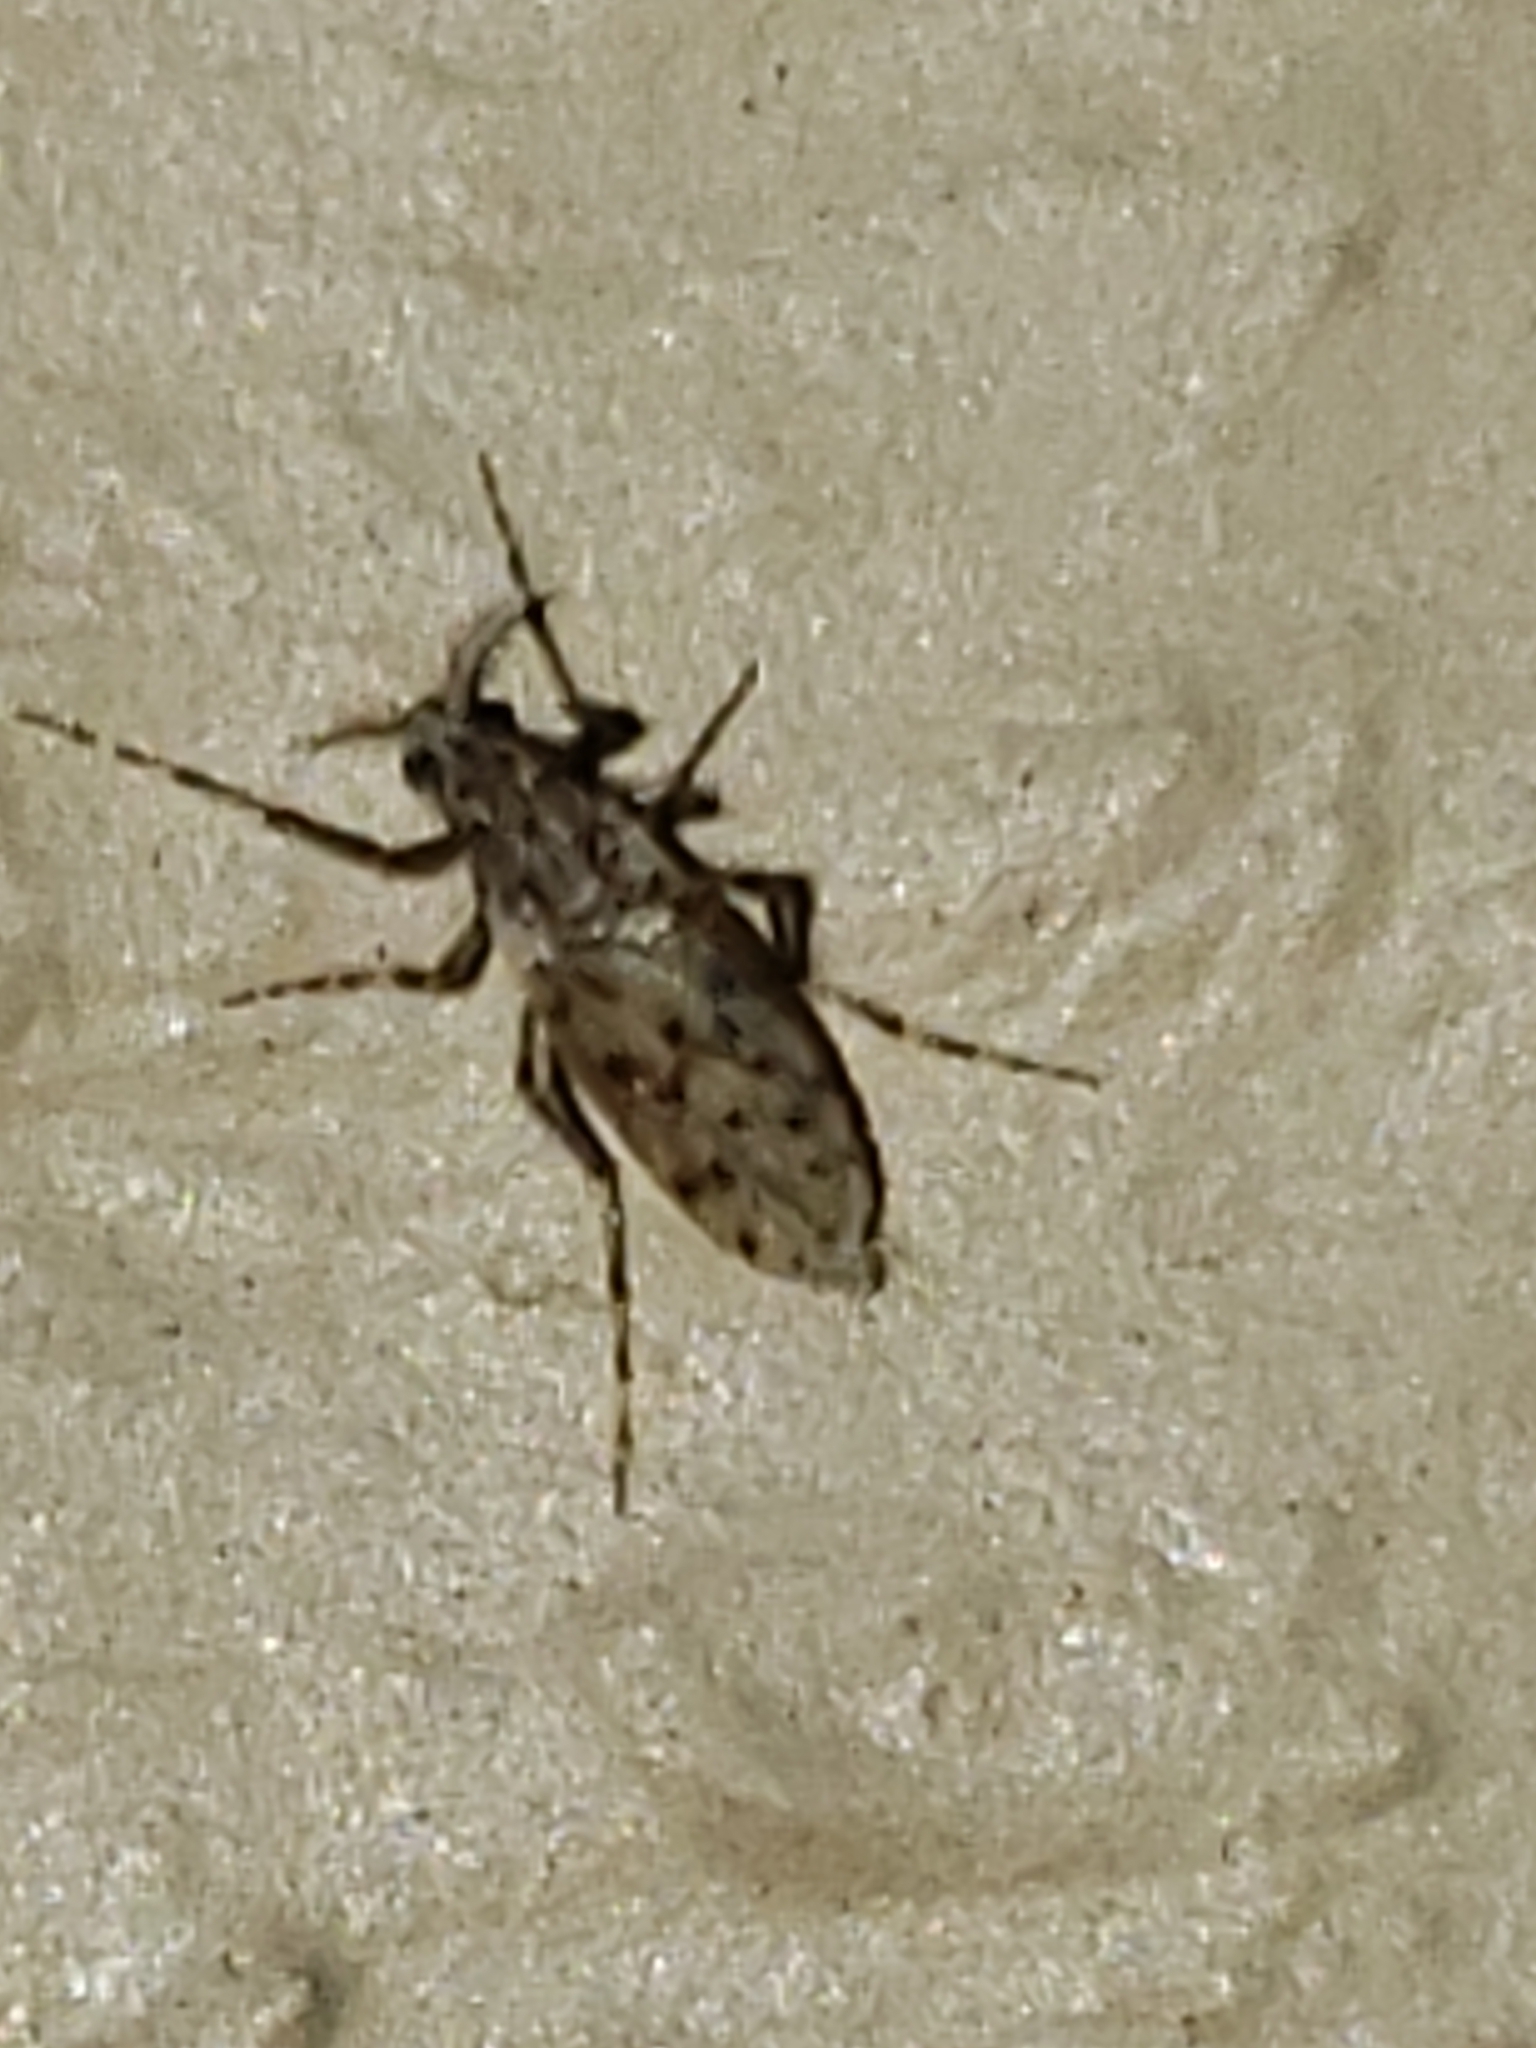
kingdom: Animalia
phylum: Arthropoda
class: Insecta
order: Diptera
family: Chaoboridae
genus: Chaoborus
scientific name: Chaoborus punctipennis
